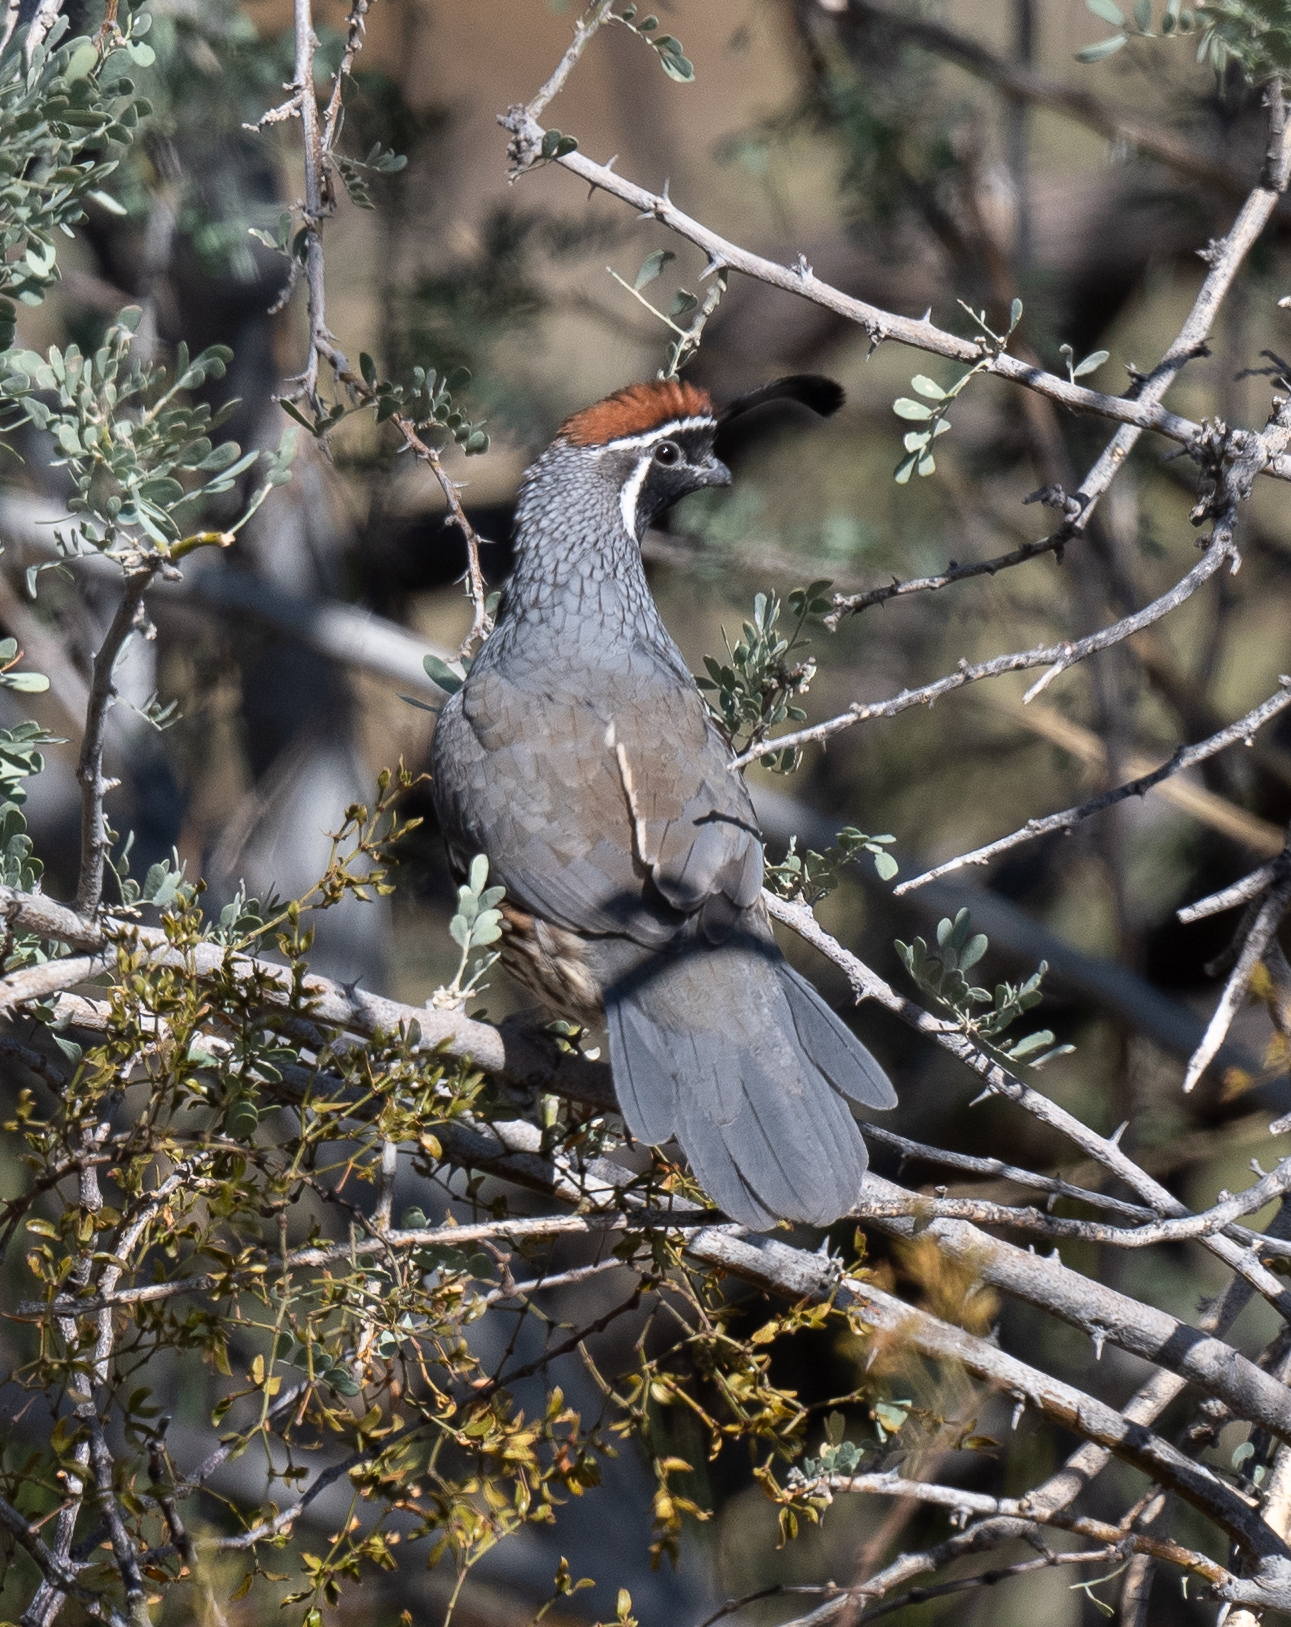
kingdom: Animalia
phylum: Chordata
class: Aves
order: Galliformes
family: Odontophoridae
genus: Callipepla
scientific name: Callipepla gambelii
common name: Gambel's quail
